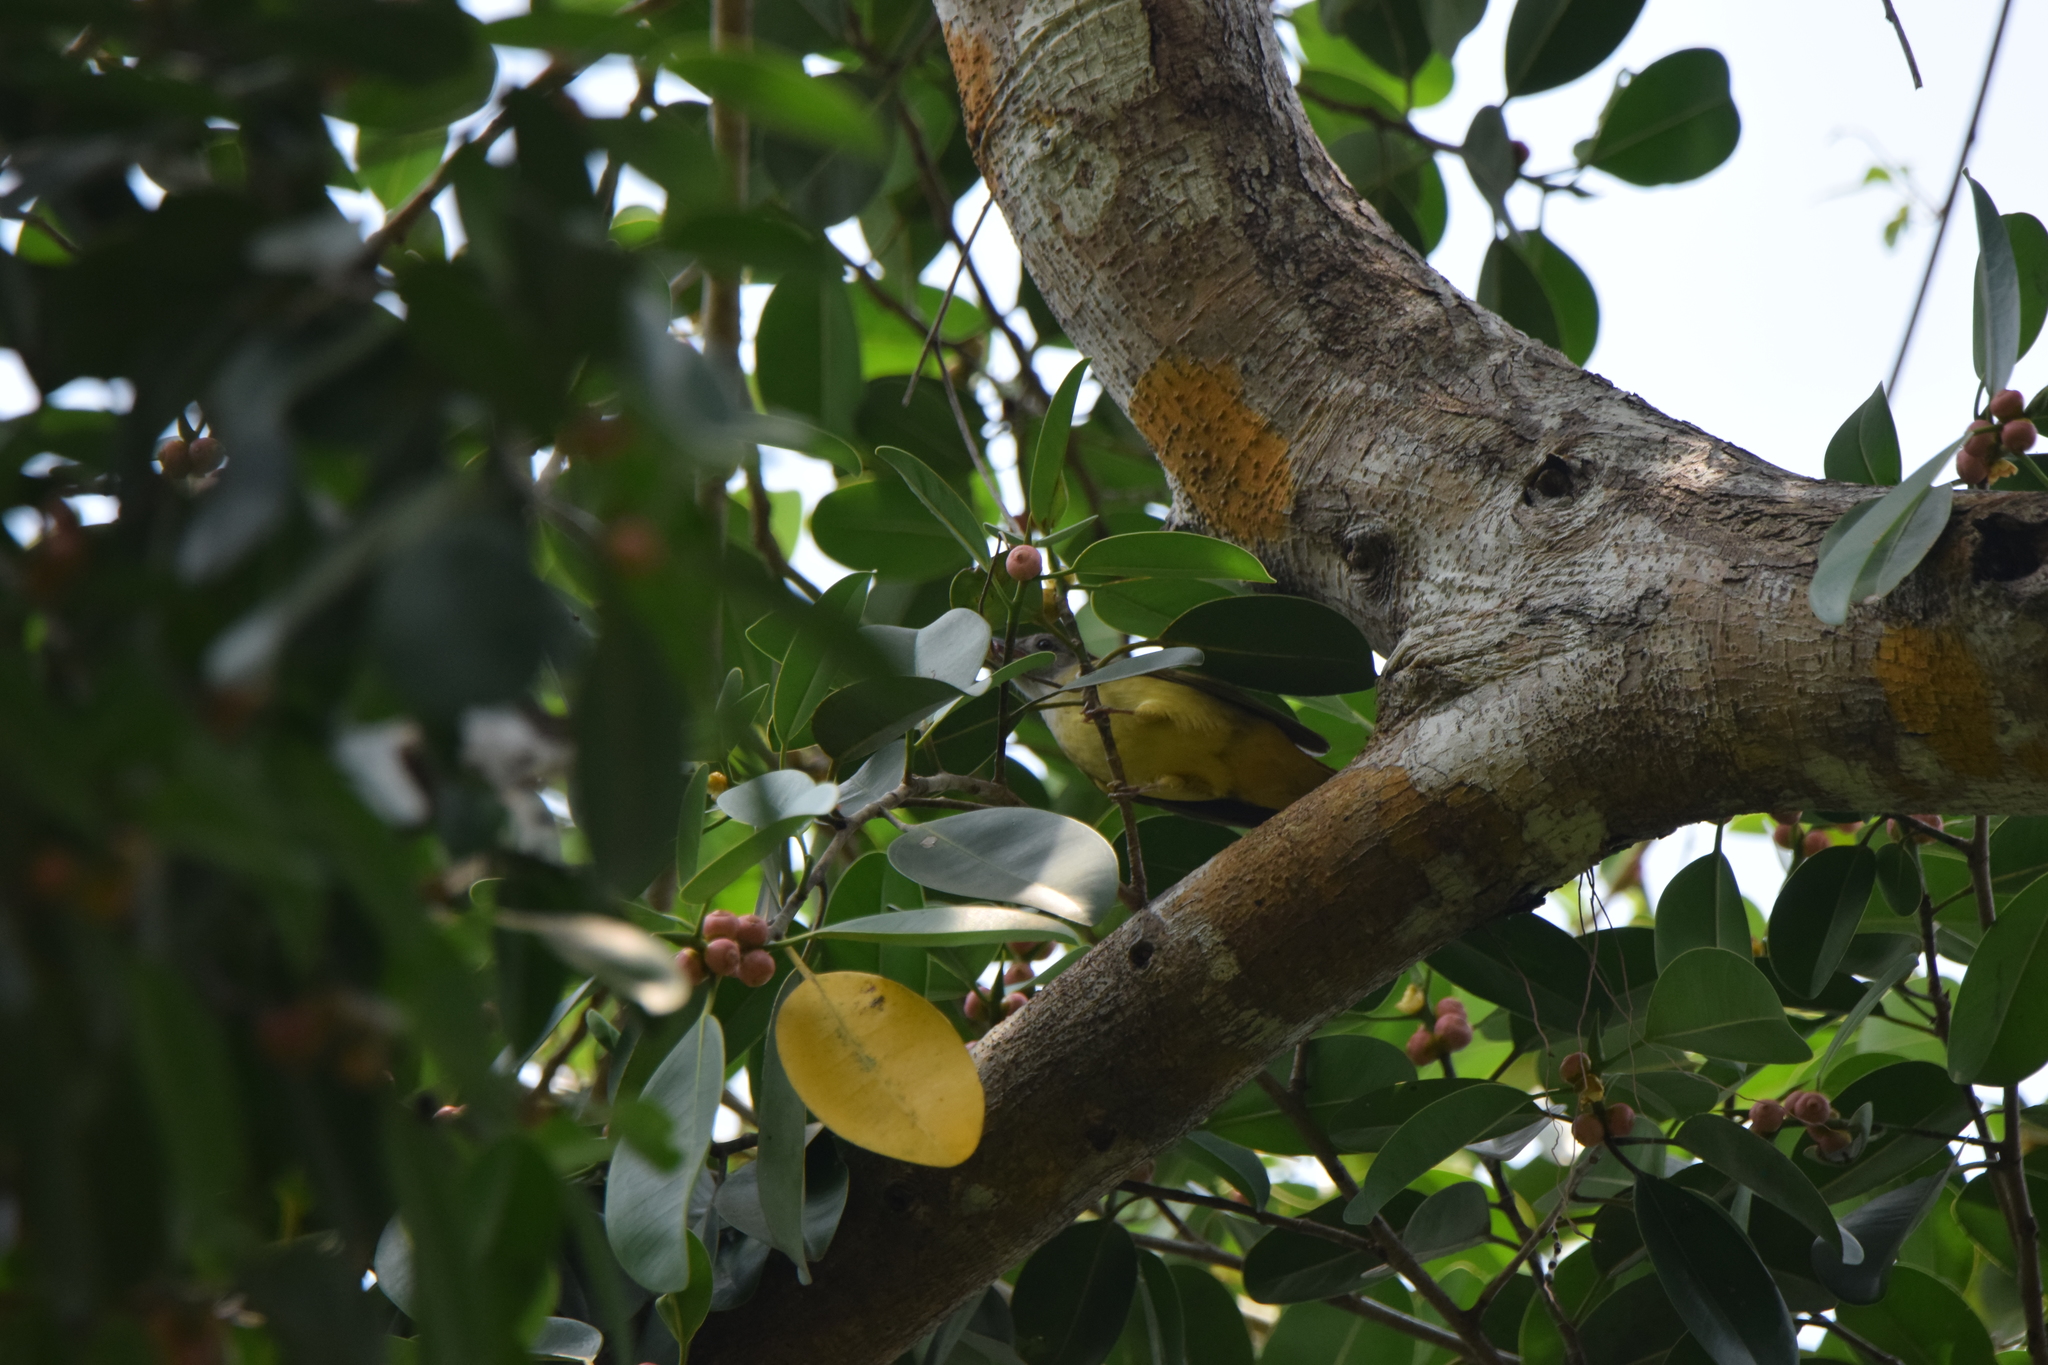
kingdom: Animalia
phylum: Chordata
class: Aves
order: Passeriformes
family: Nectariniidae
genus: Arachnothera
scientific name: Arachnothera longirostra
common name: Little spiderhunter
